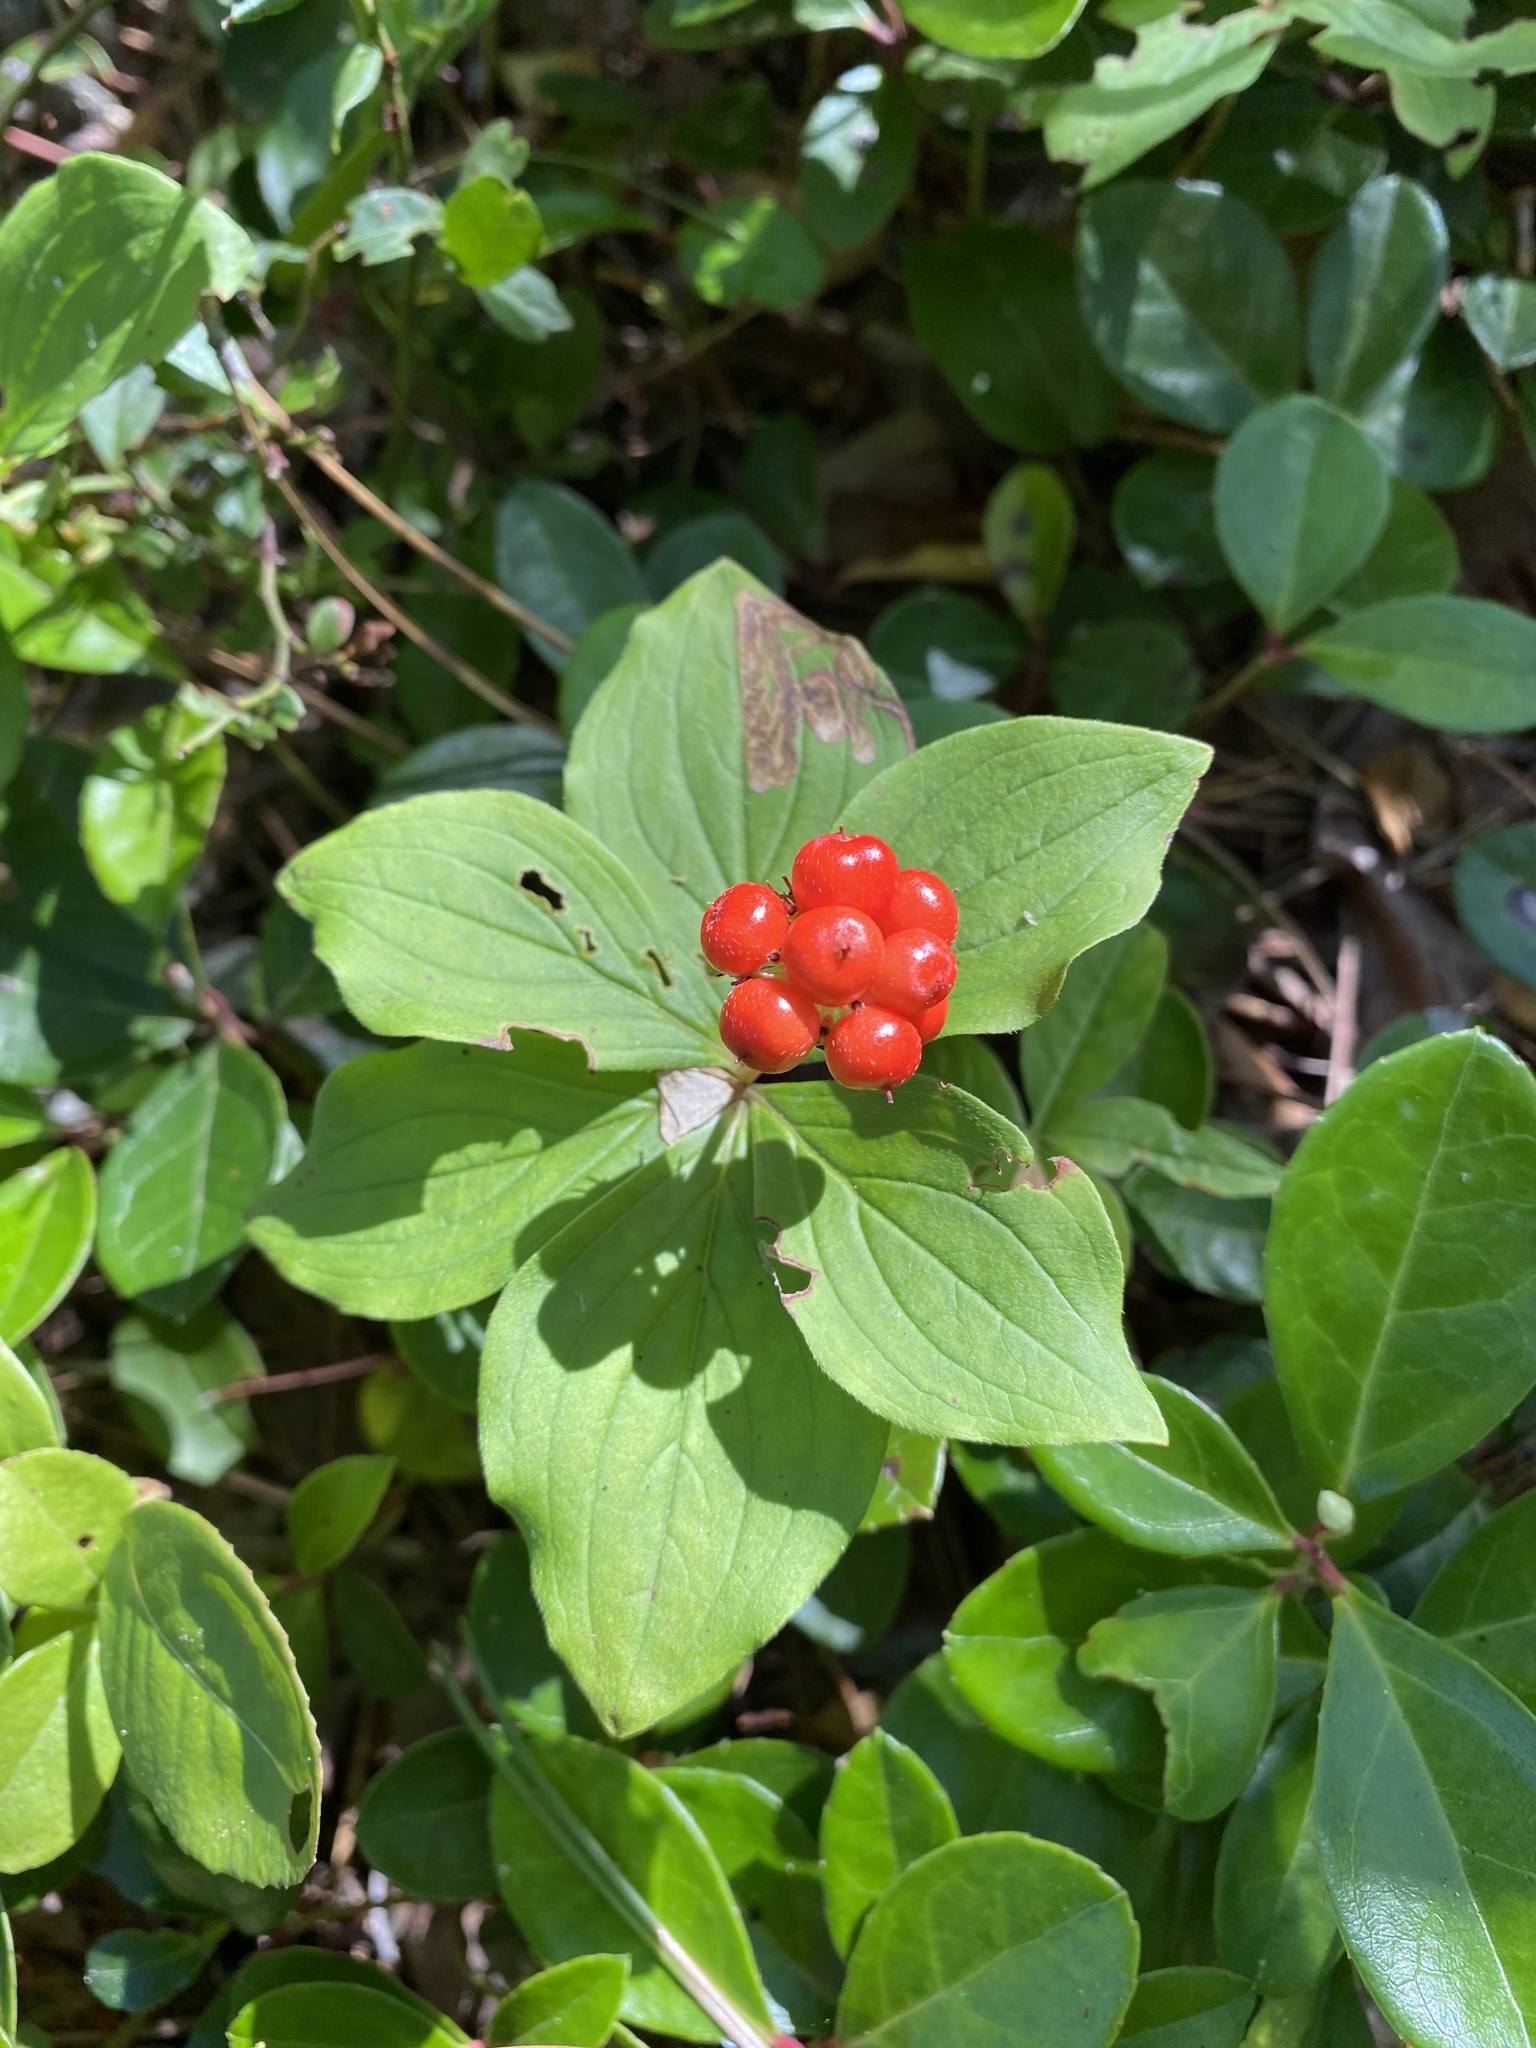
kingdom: Plantae
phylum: Tracheophyta
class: Magnoliopsida
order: Cornales
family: Cornaceae
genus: Cornus
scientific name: Cornus canadensis
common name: Creeping dogwood
